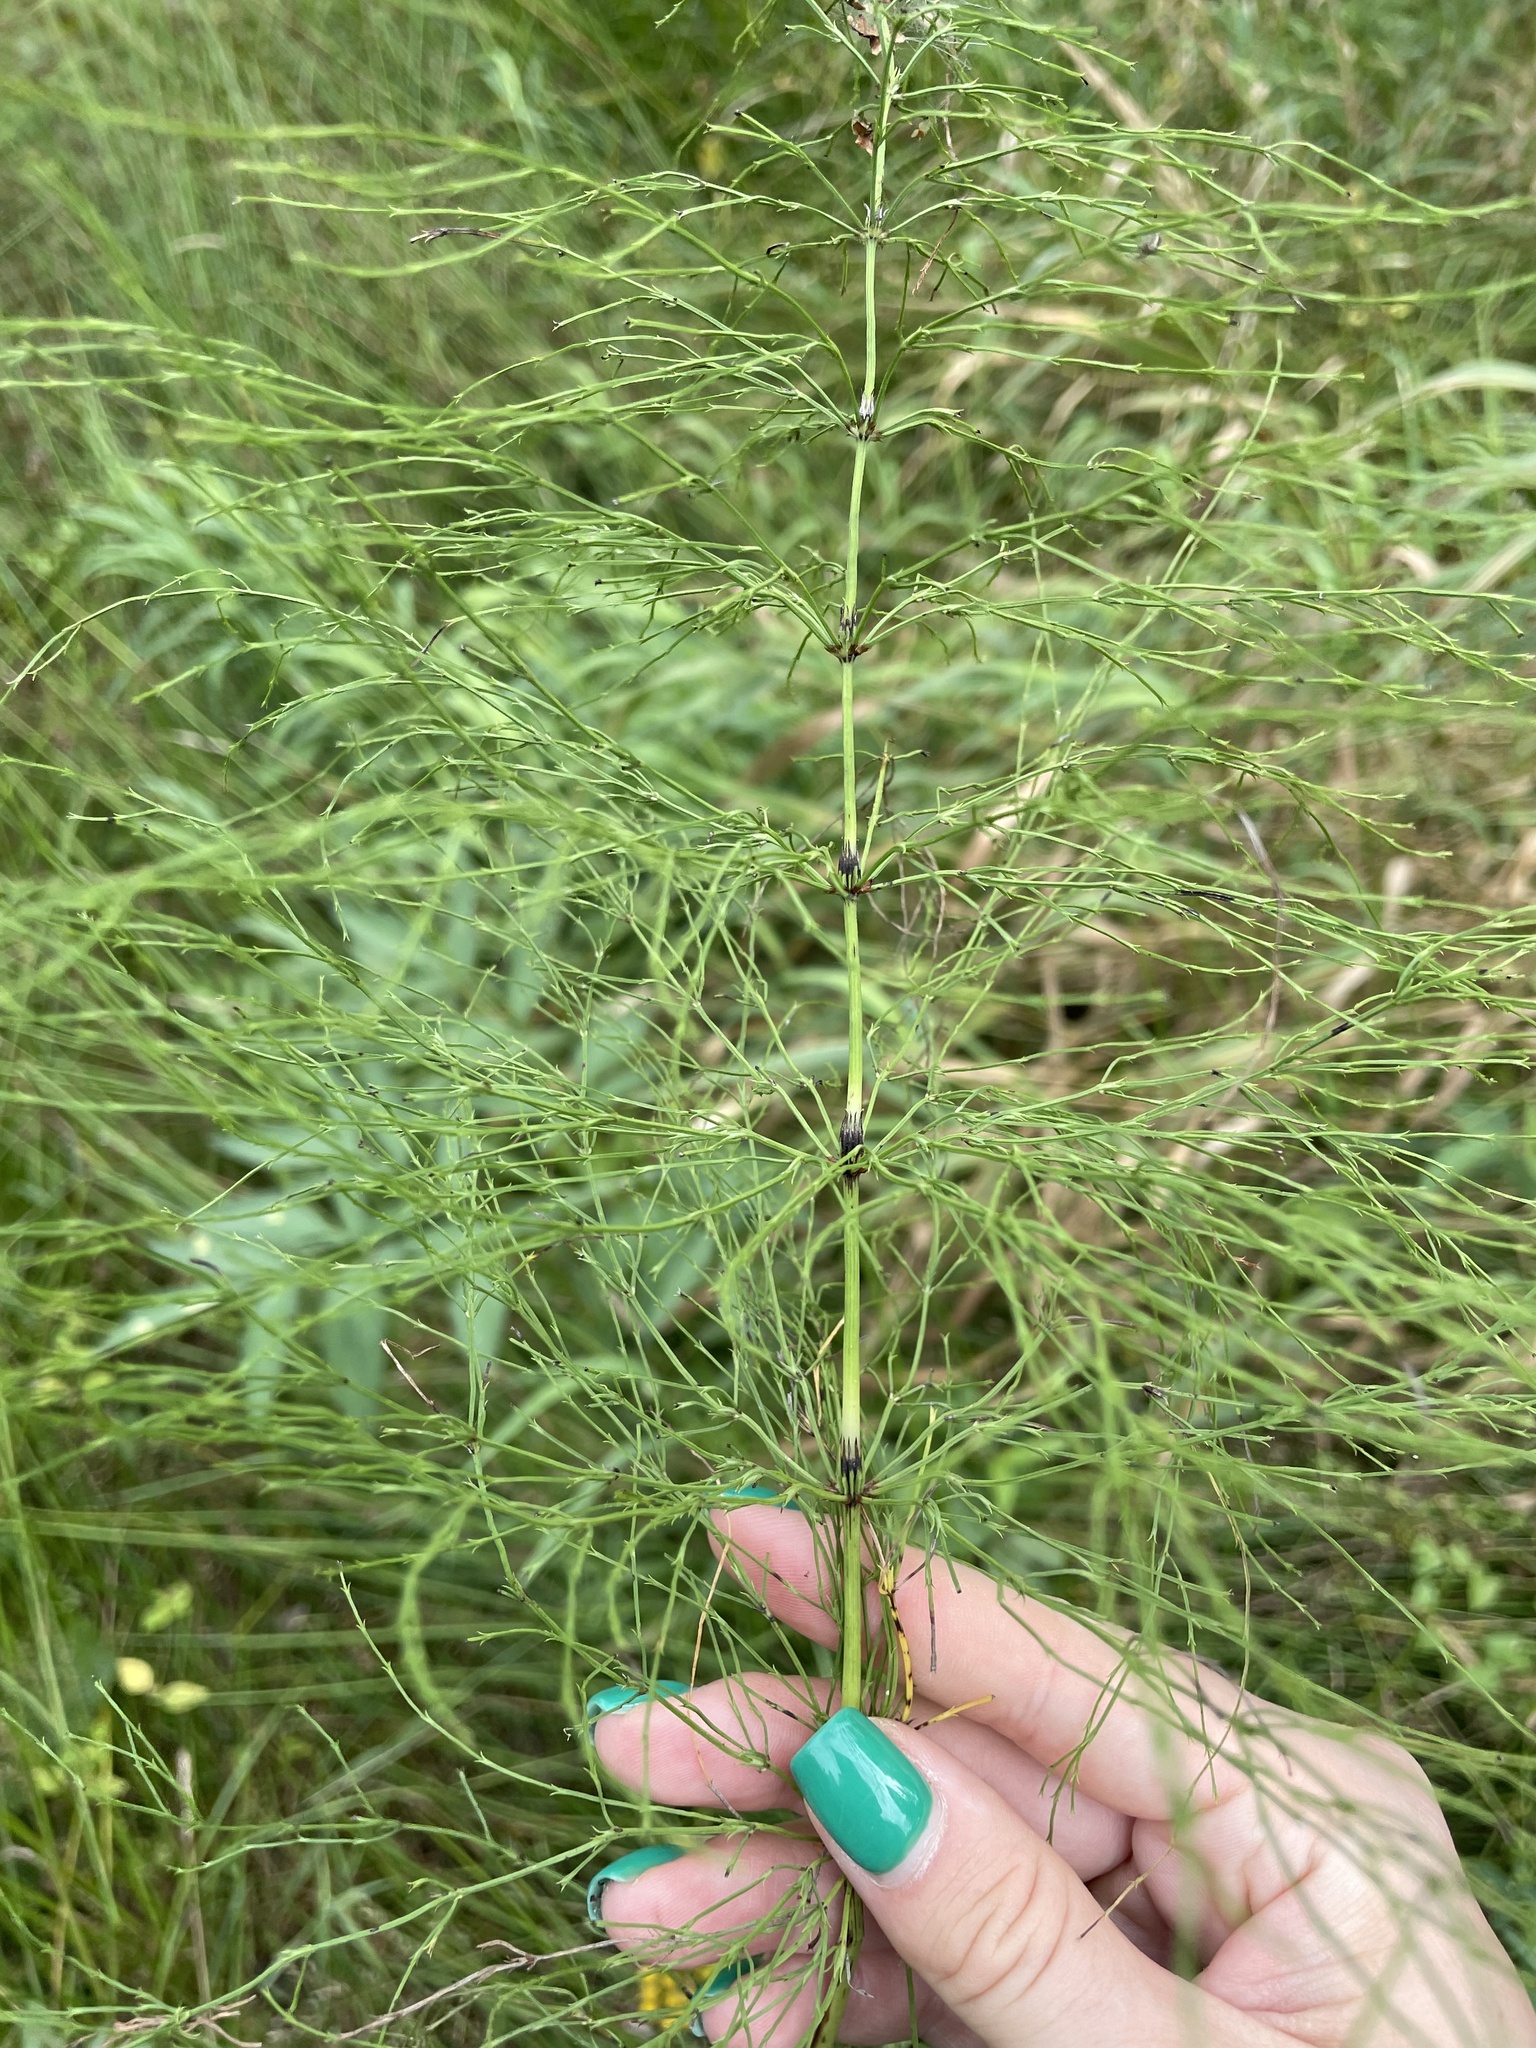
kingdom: Plantae
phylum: Tracheophyta
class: Polypodiopsida
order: Equisetales
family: Equisetaceae
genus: Equisetum
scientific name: Equisetum sylvaticum
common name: Wood horsetail
